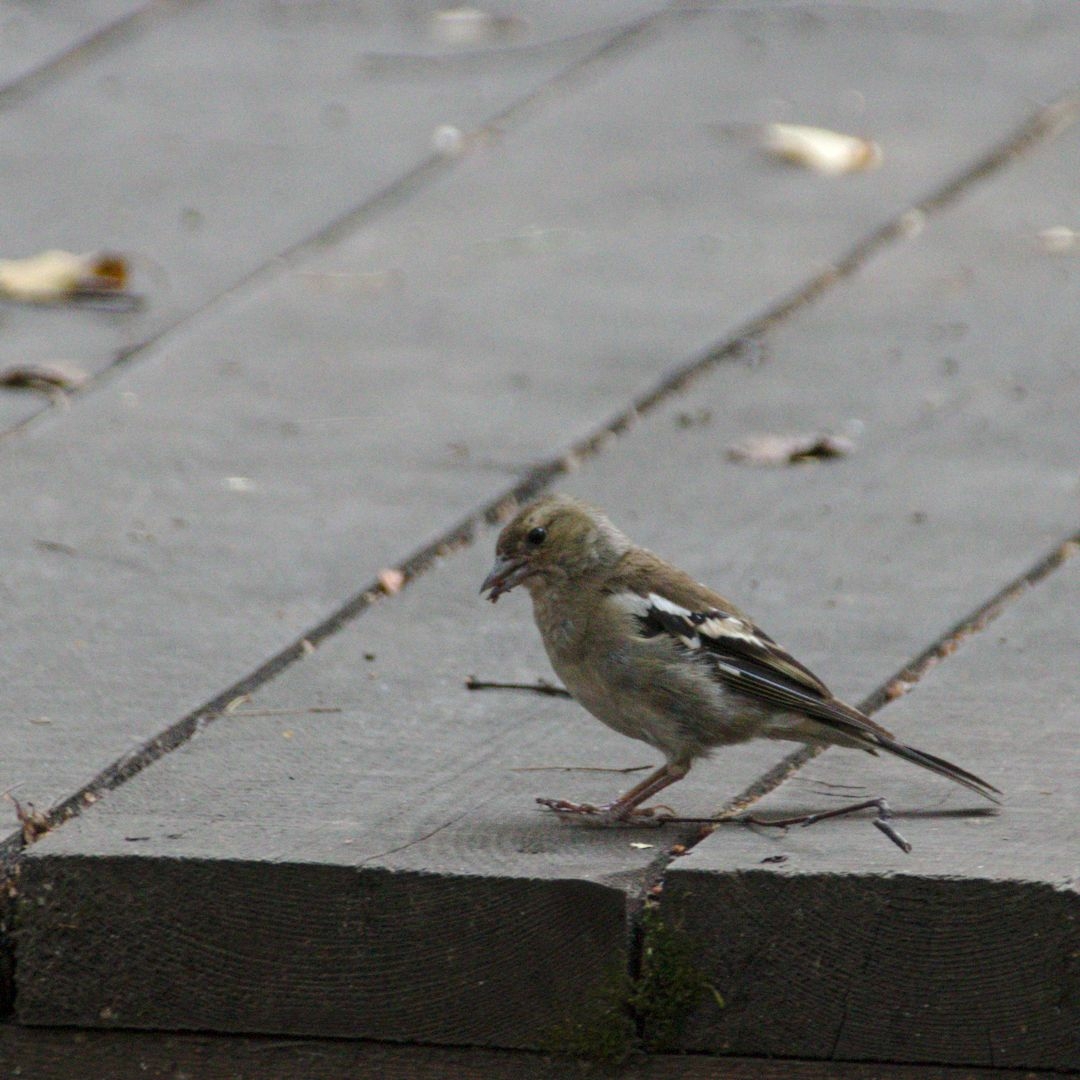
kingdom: Animalia
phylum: Chordata
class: Aves
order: Passeriformes
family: Fringillidae
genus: Fringilla
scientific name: Fringilla coelebs
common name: Common chaffinch
